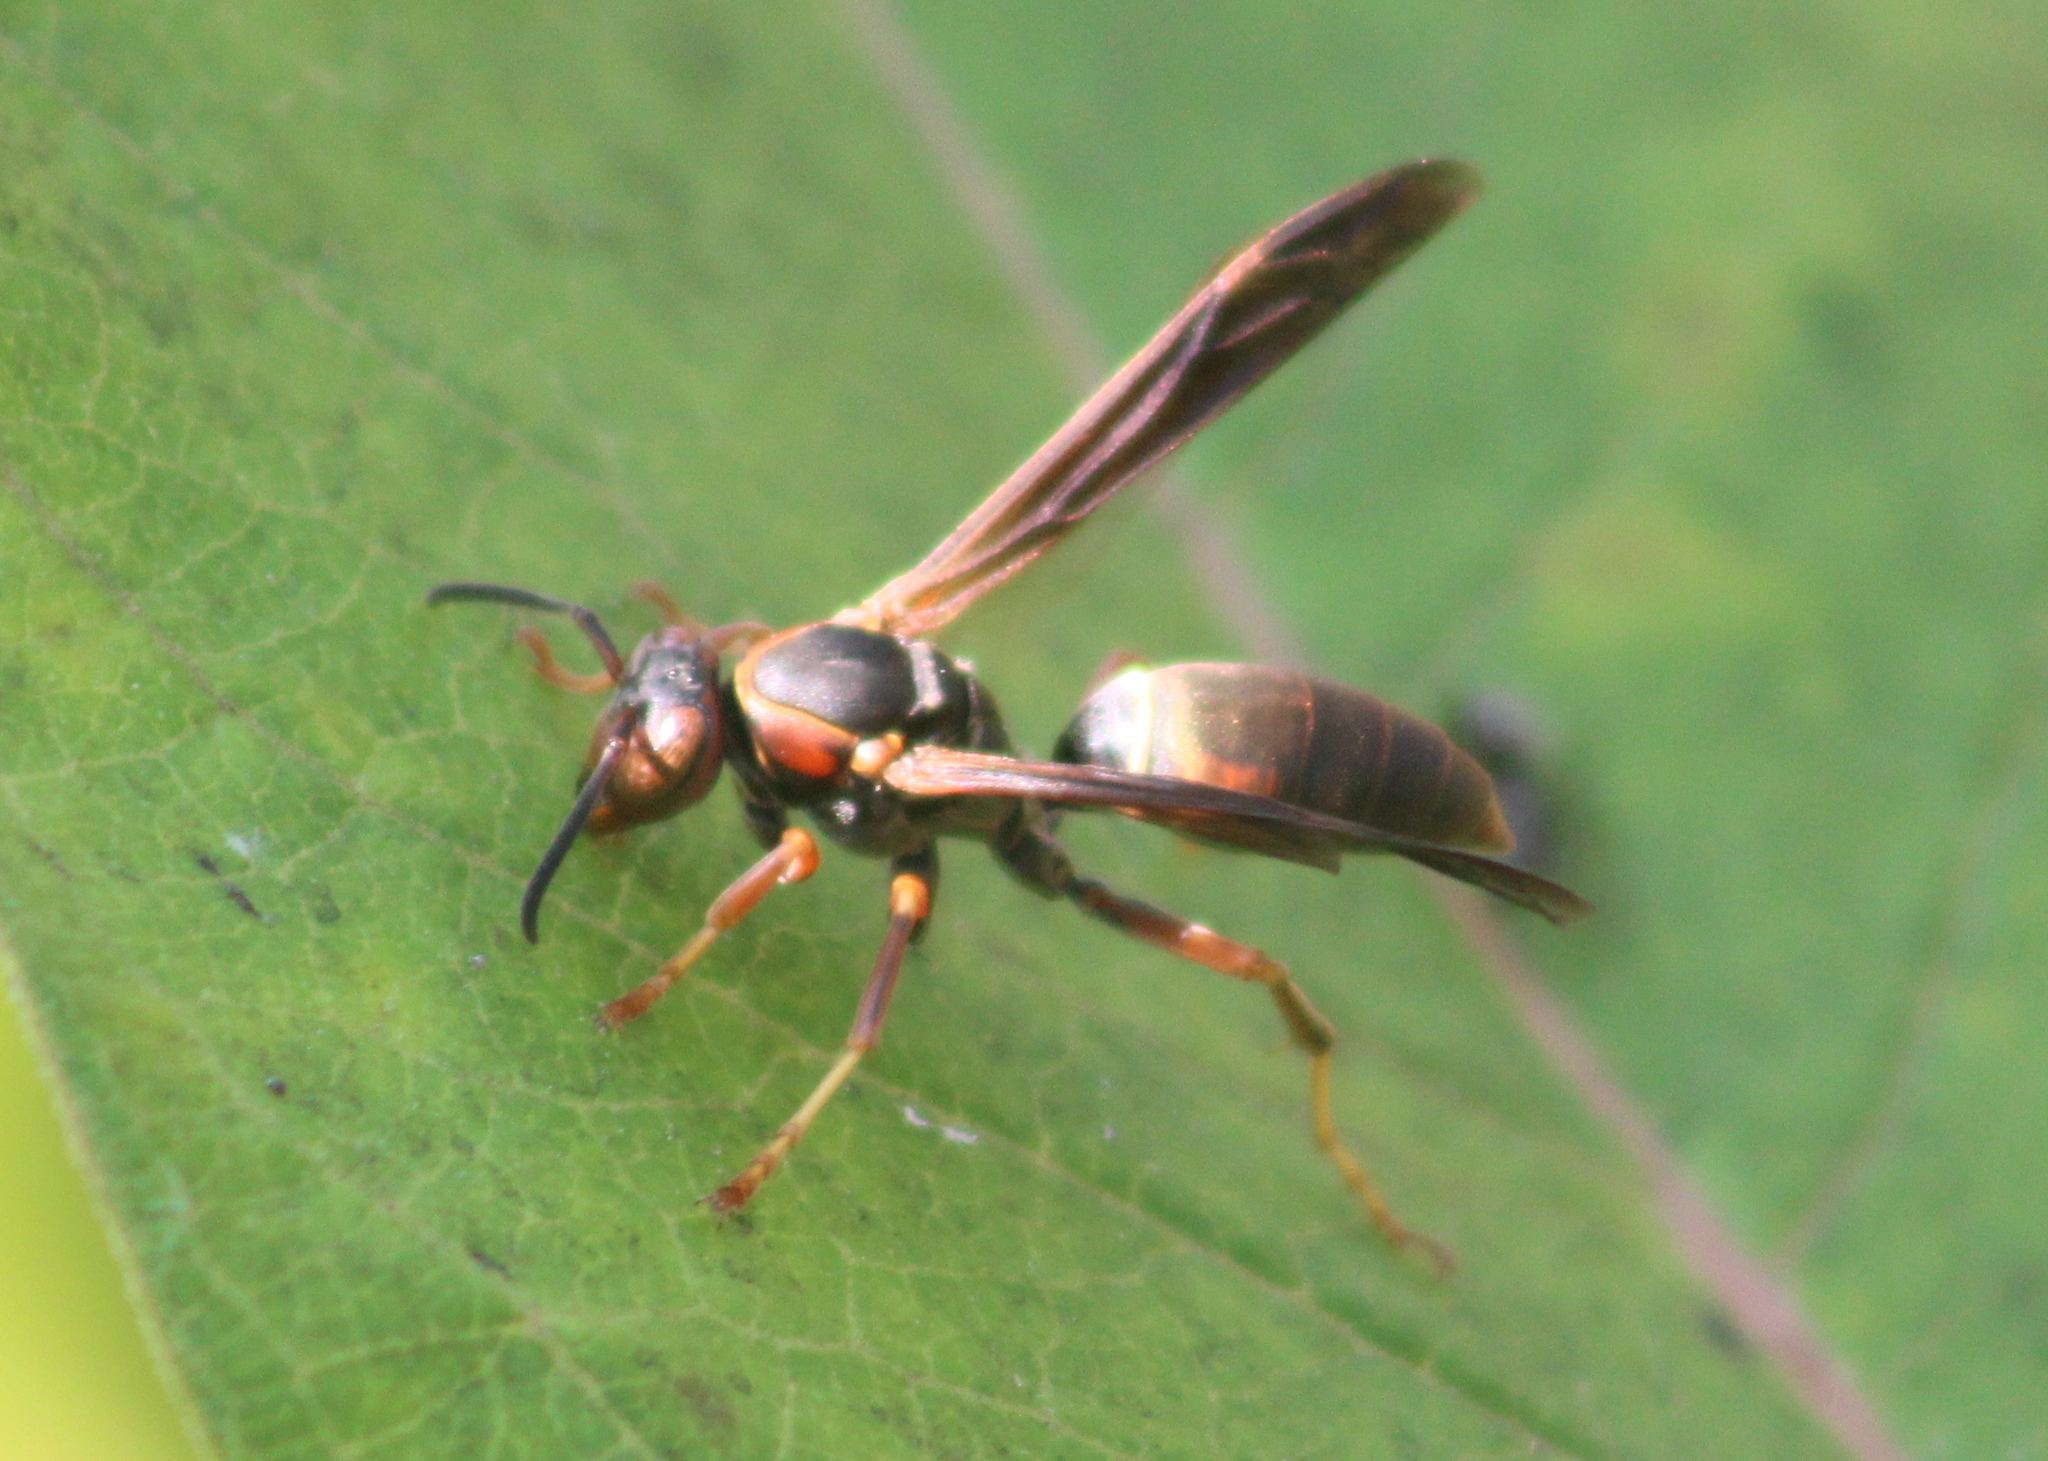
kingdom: Animalia
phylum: Arthropoda
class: Insecta
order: Hymenoptera
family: Eumenidae
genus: Polistes
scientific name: Polistes fuscatus
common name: Dark paper wasp
